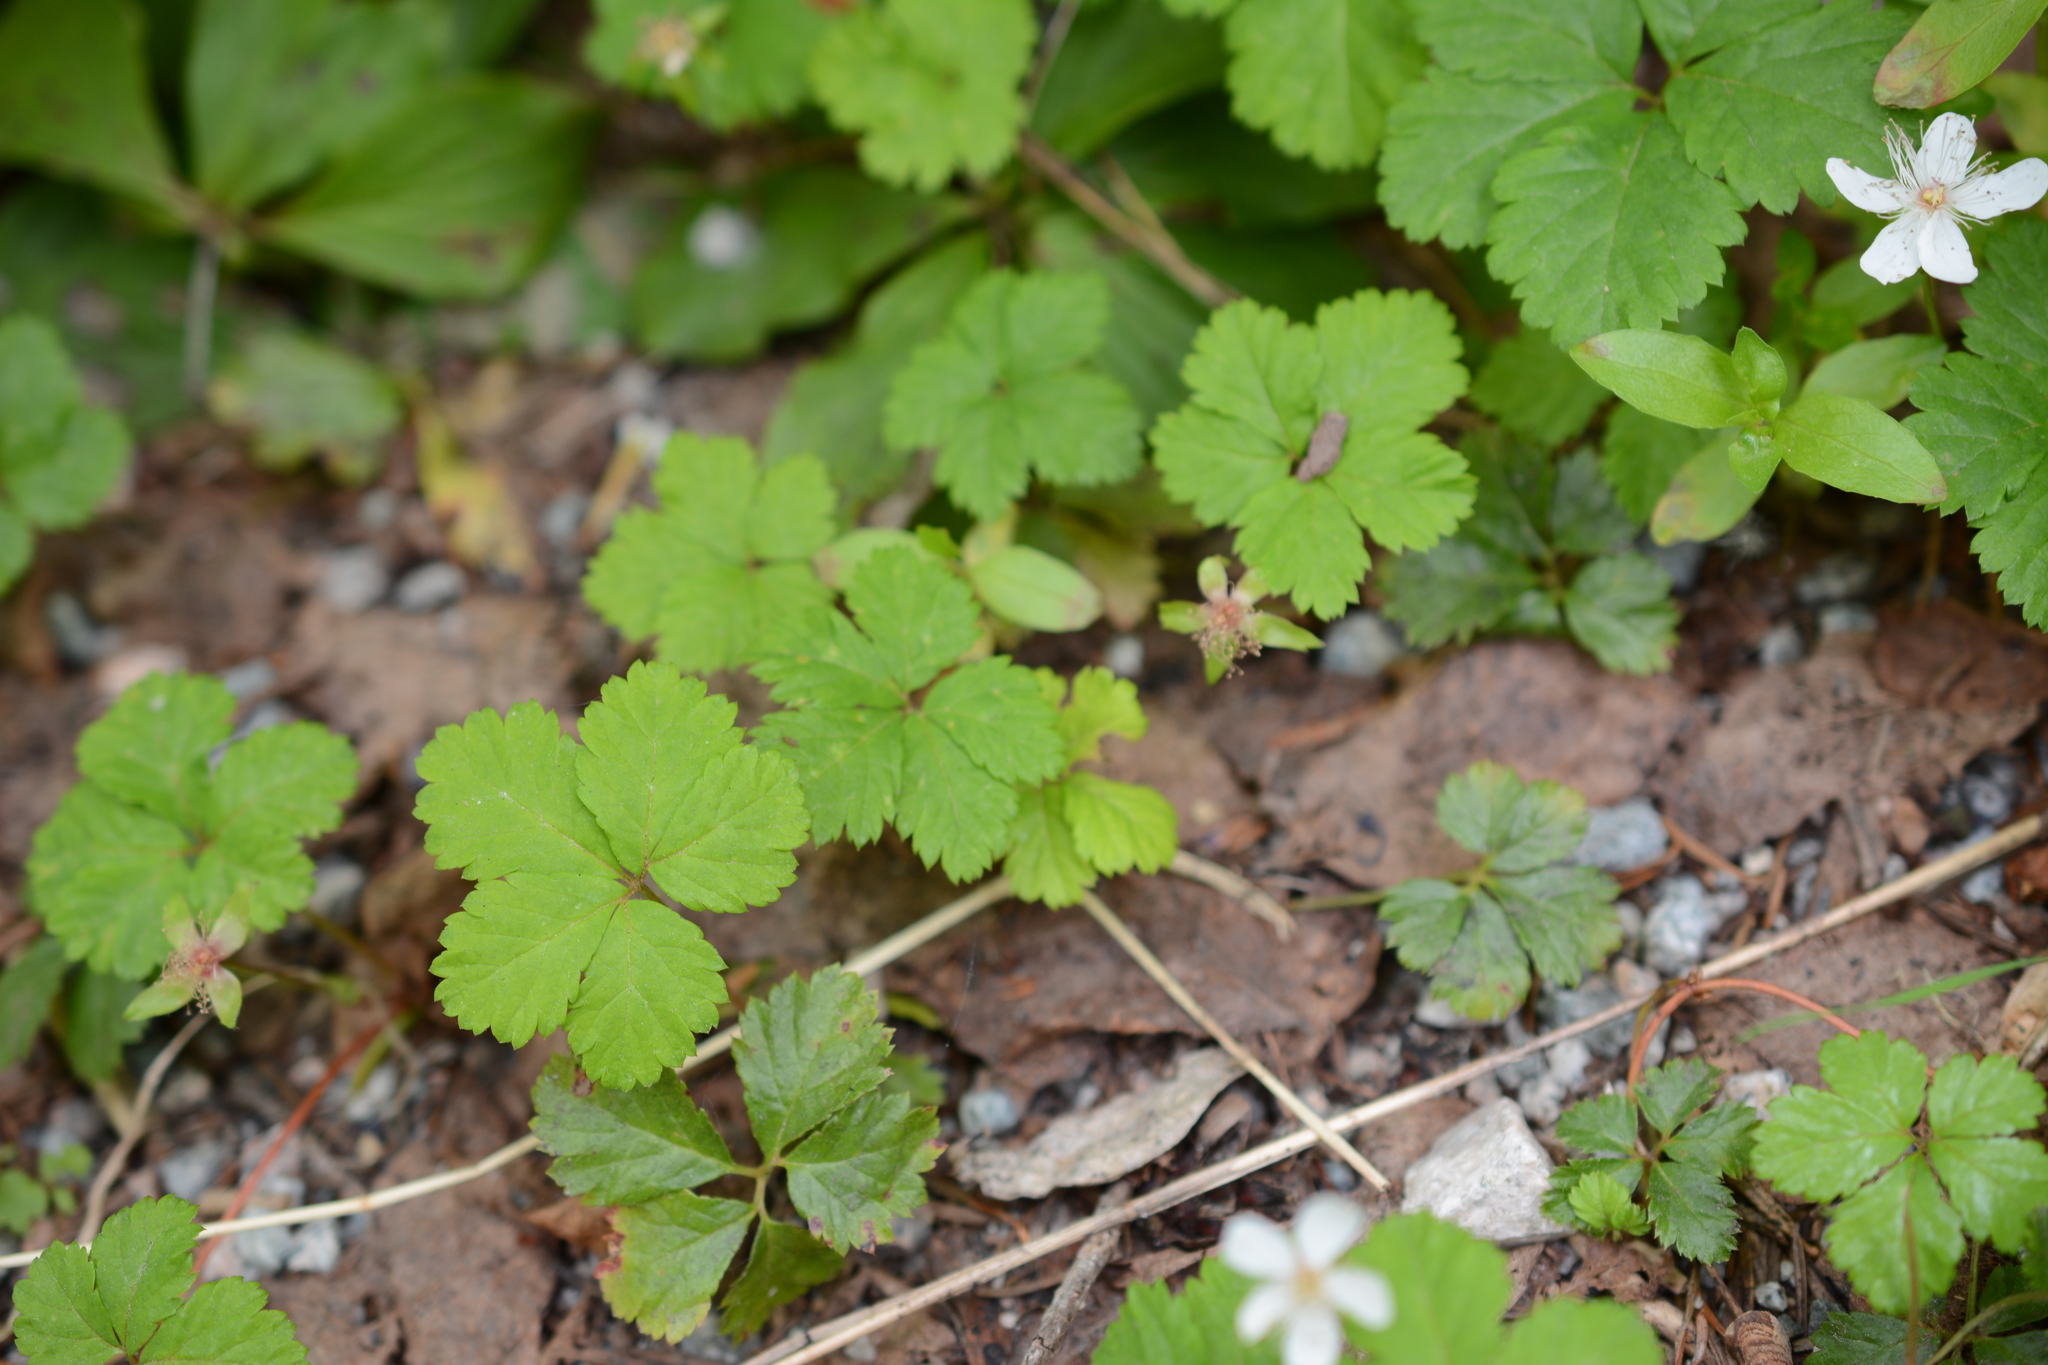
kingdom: Plantae
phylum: Tracheophyta
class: Magnoliopsida
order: Rosales
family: Rosaceae
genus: Rubus
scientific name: Rubus pedatus
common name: Creeping raspberry
